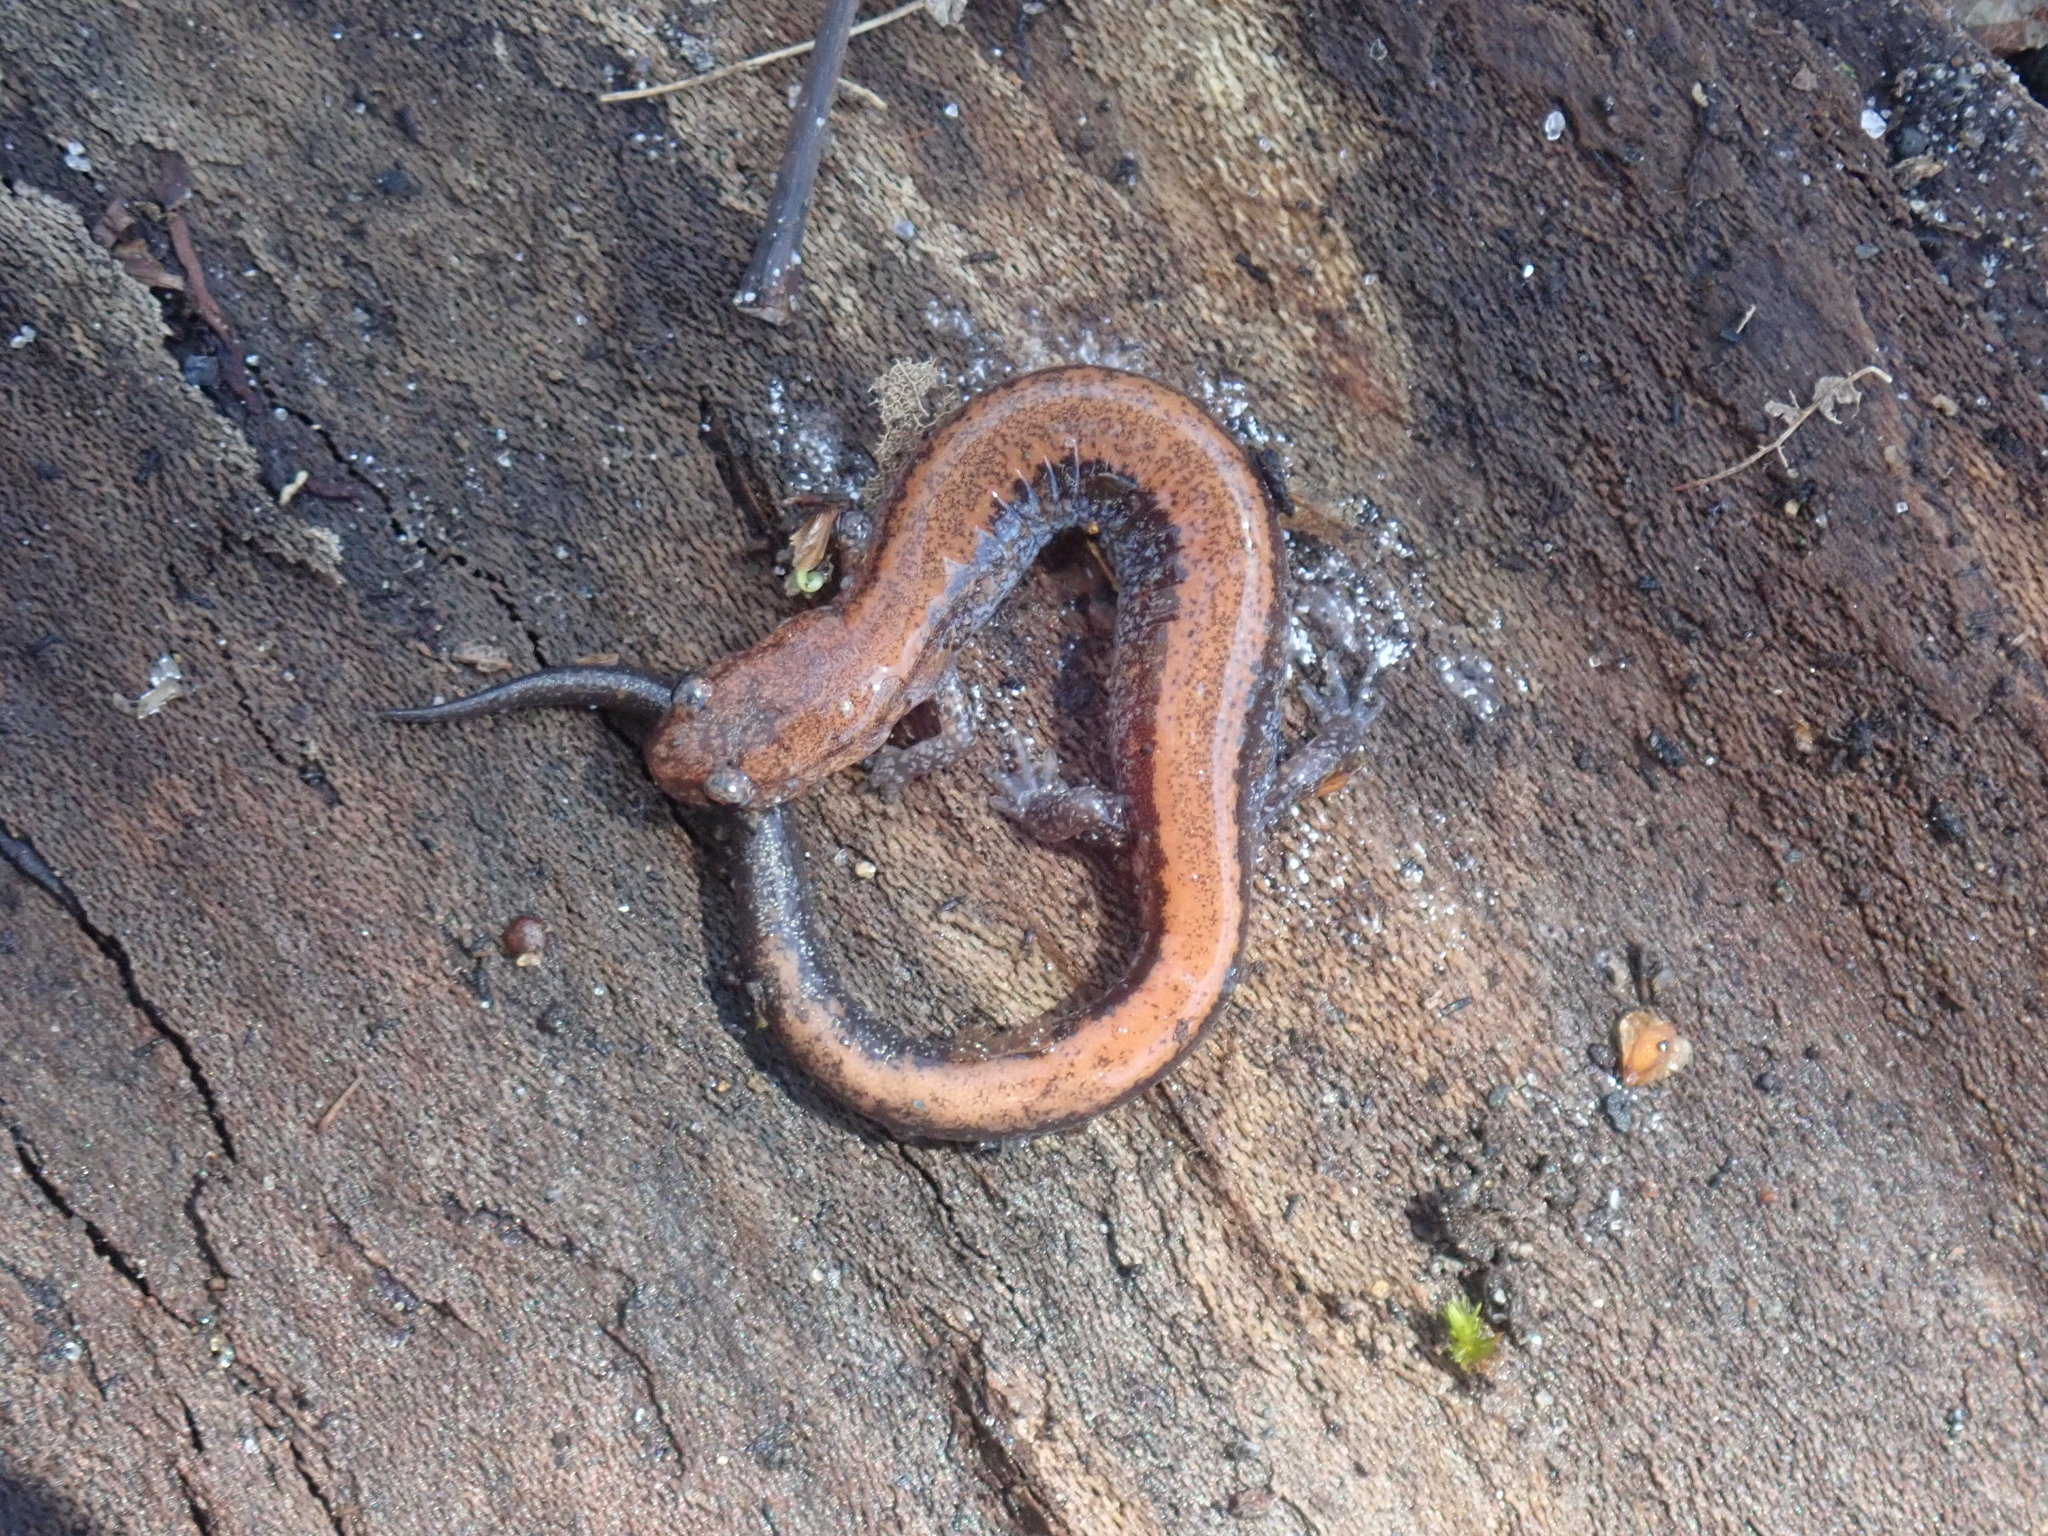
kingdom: Animalia
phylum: Chordata
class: Amphibia
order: Caudata
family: Plethodontidae
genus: Plethodon
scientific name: Plethodon cinereus
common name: Redback salamander
